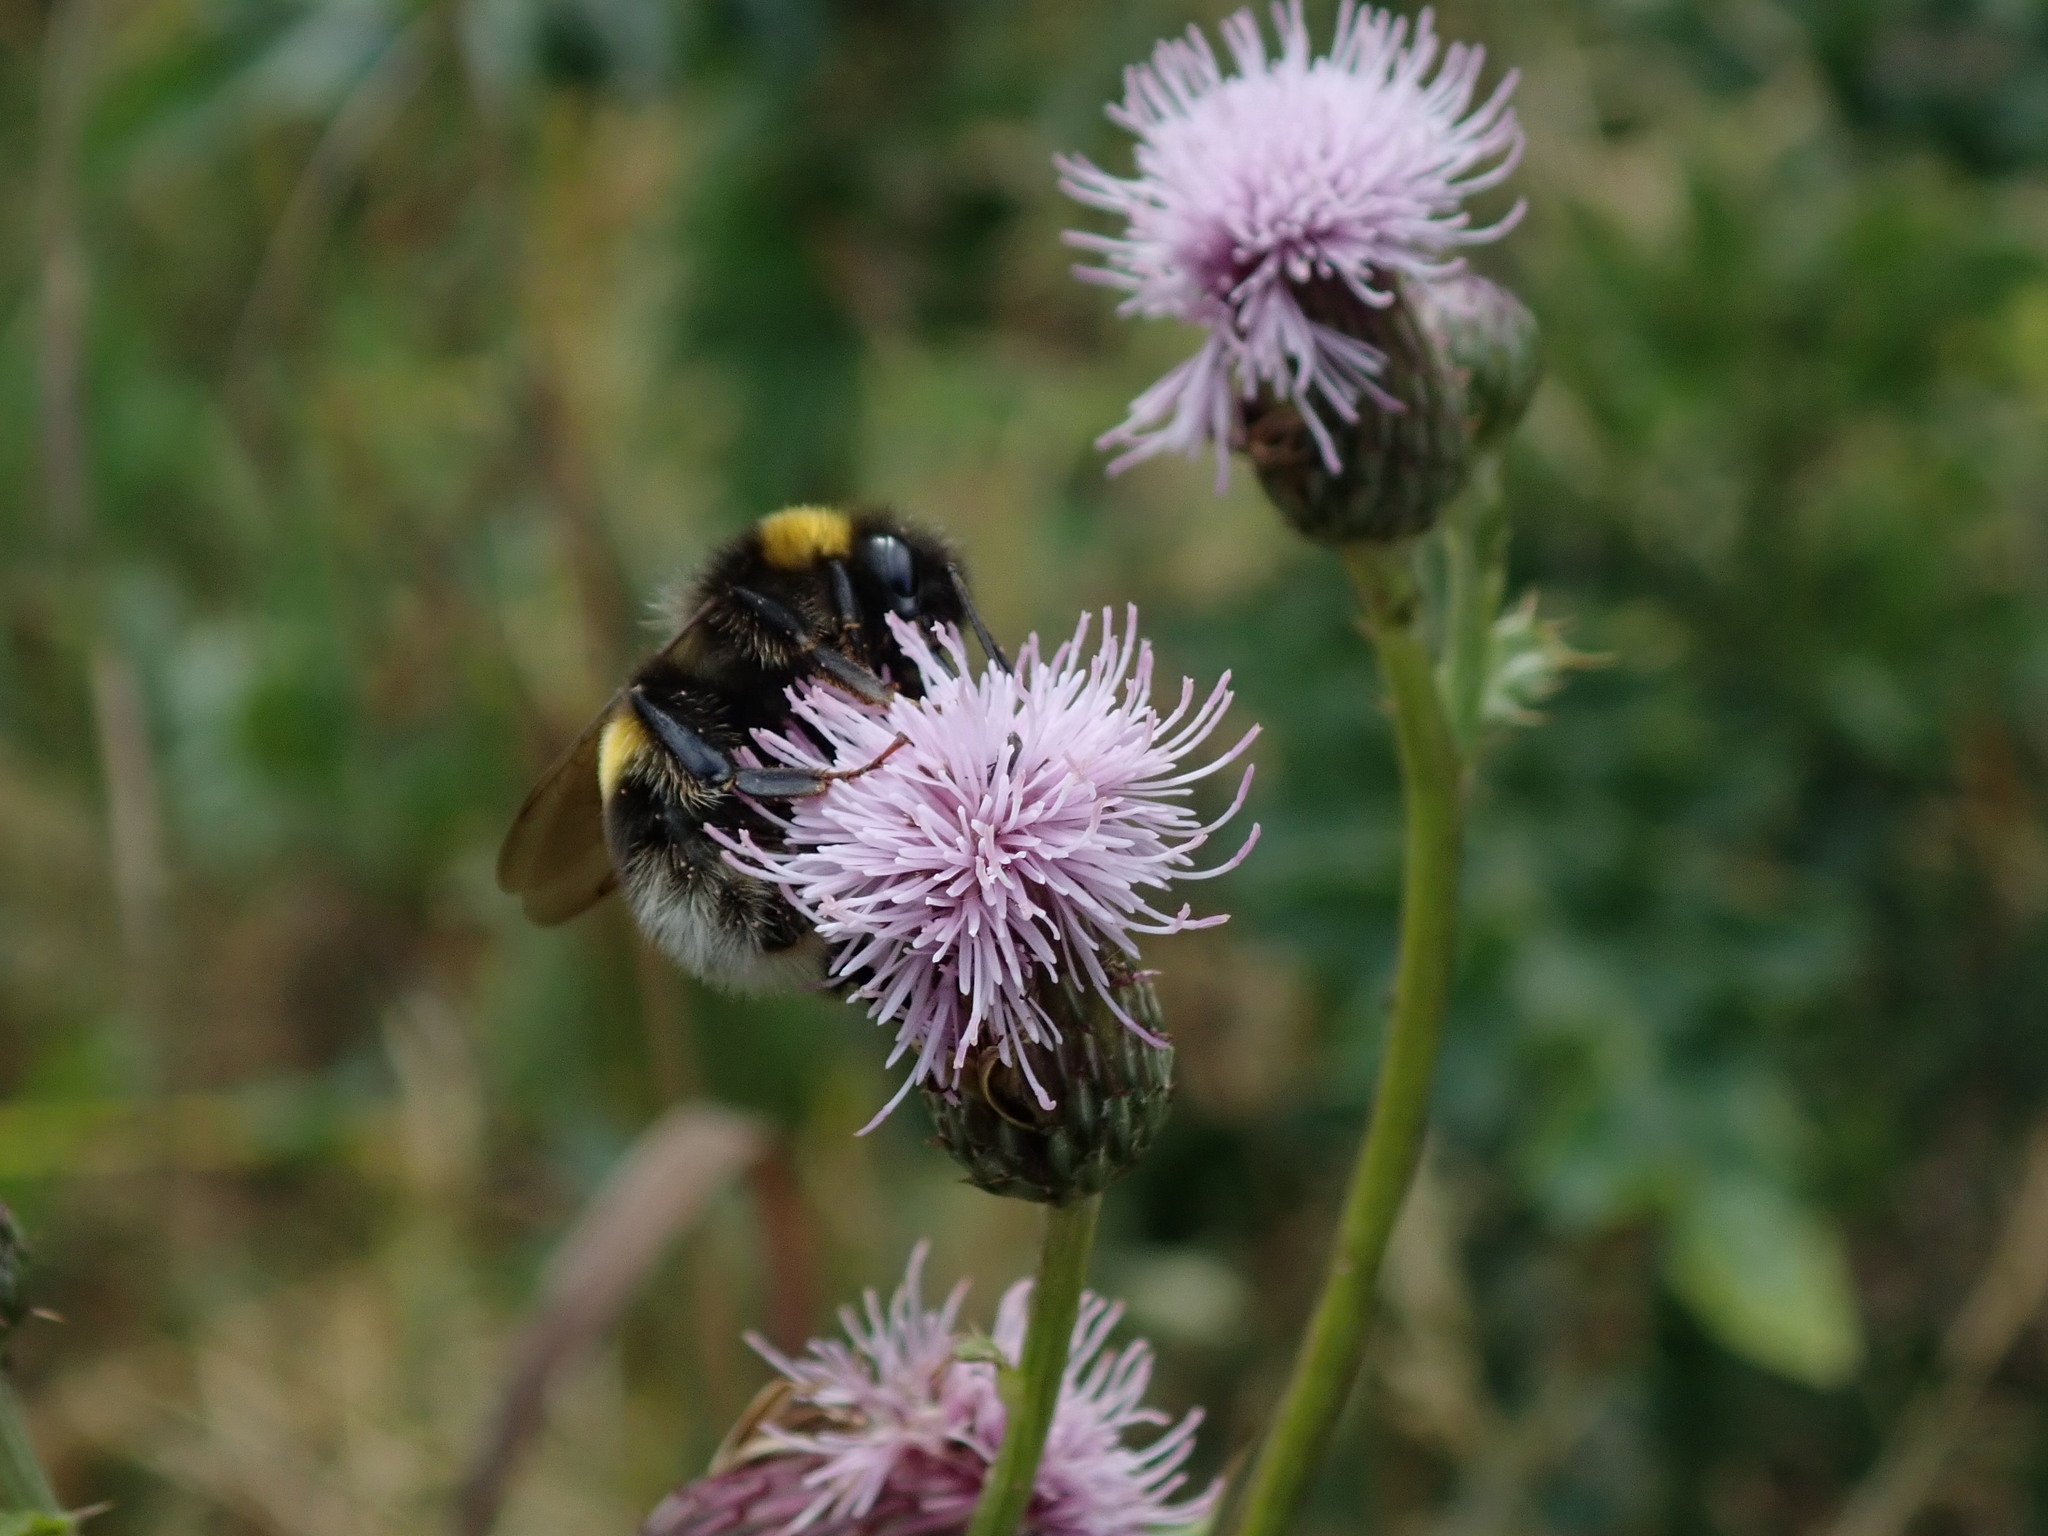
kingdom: Animalia
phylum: Arthropoda
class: Insecta
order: Hymenoptera
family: Apidae
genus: Bombus
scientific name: Bombus terrestris
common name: Buff-tailed bumblebee
